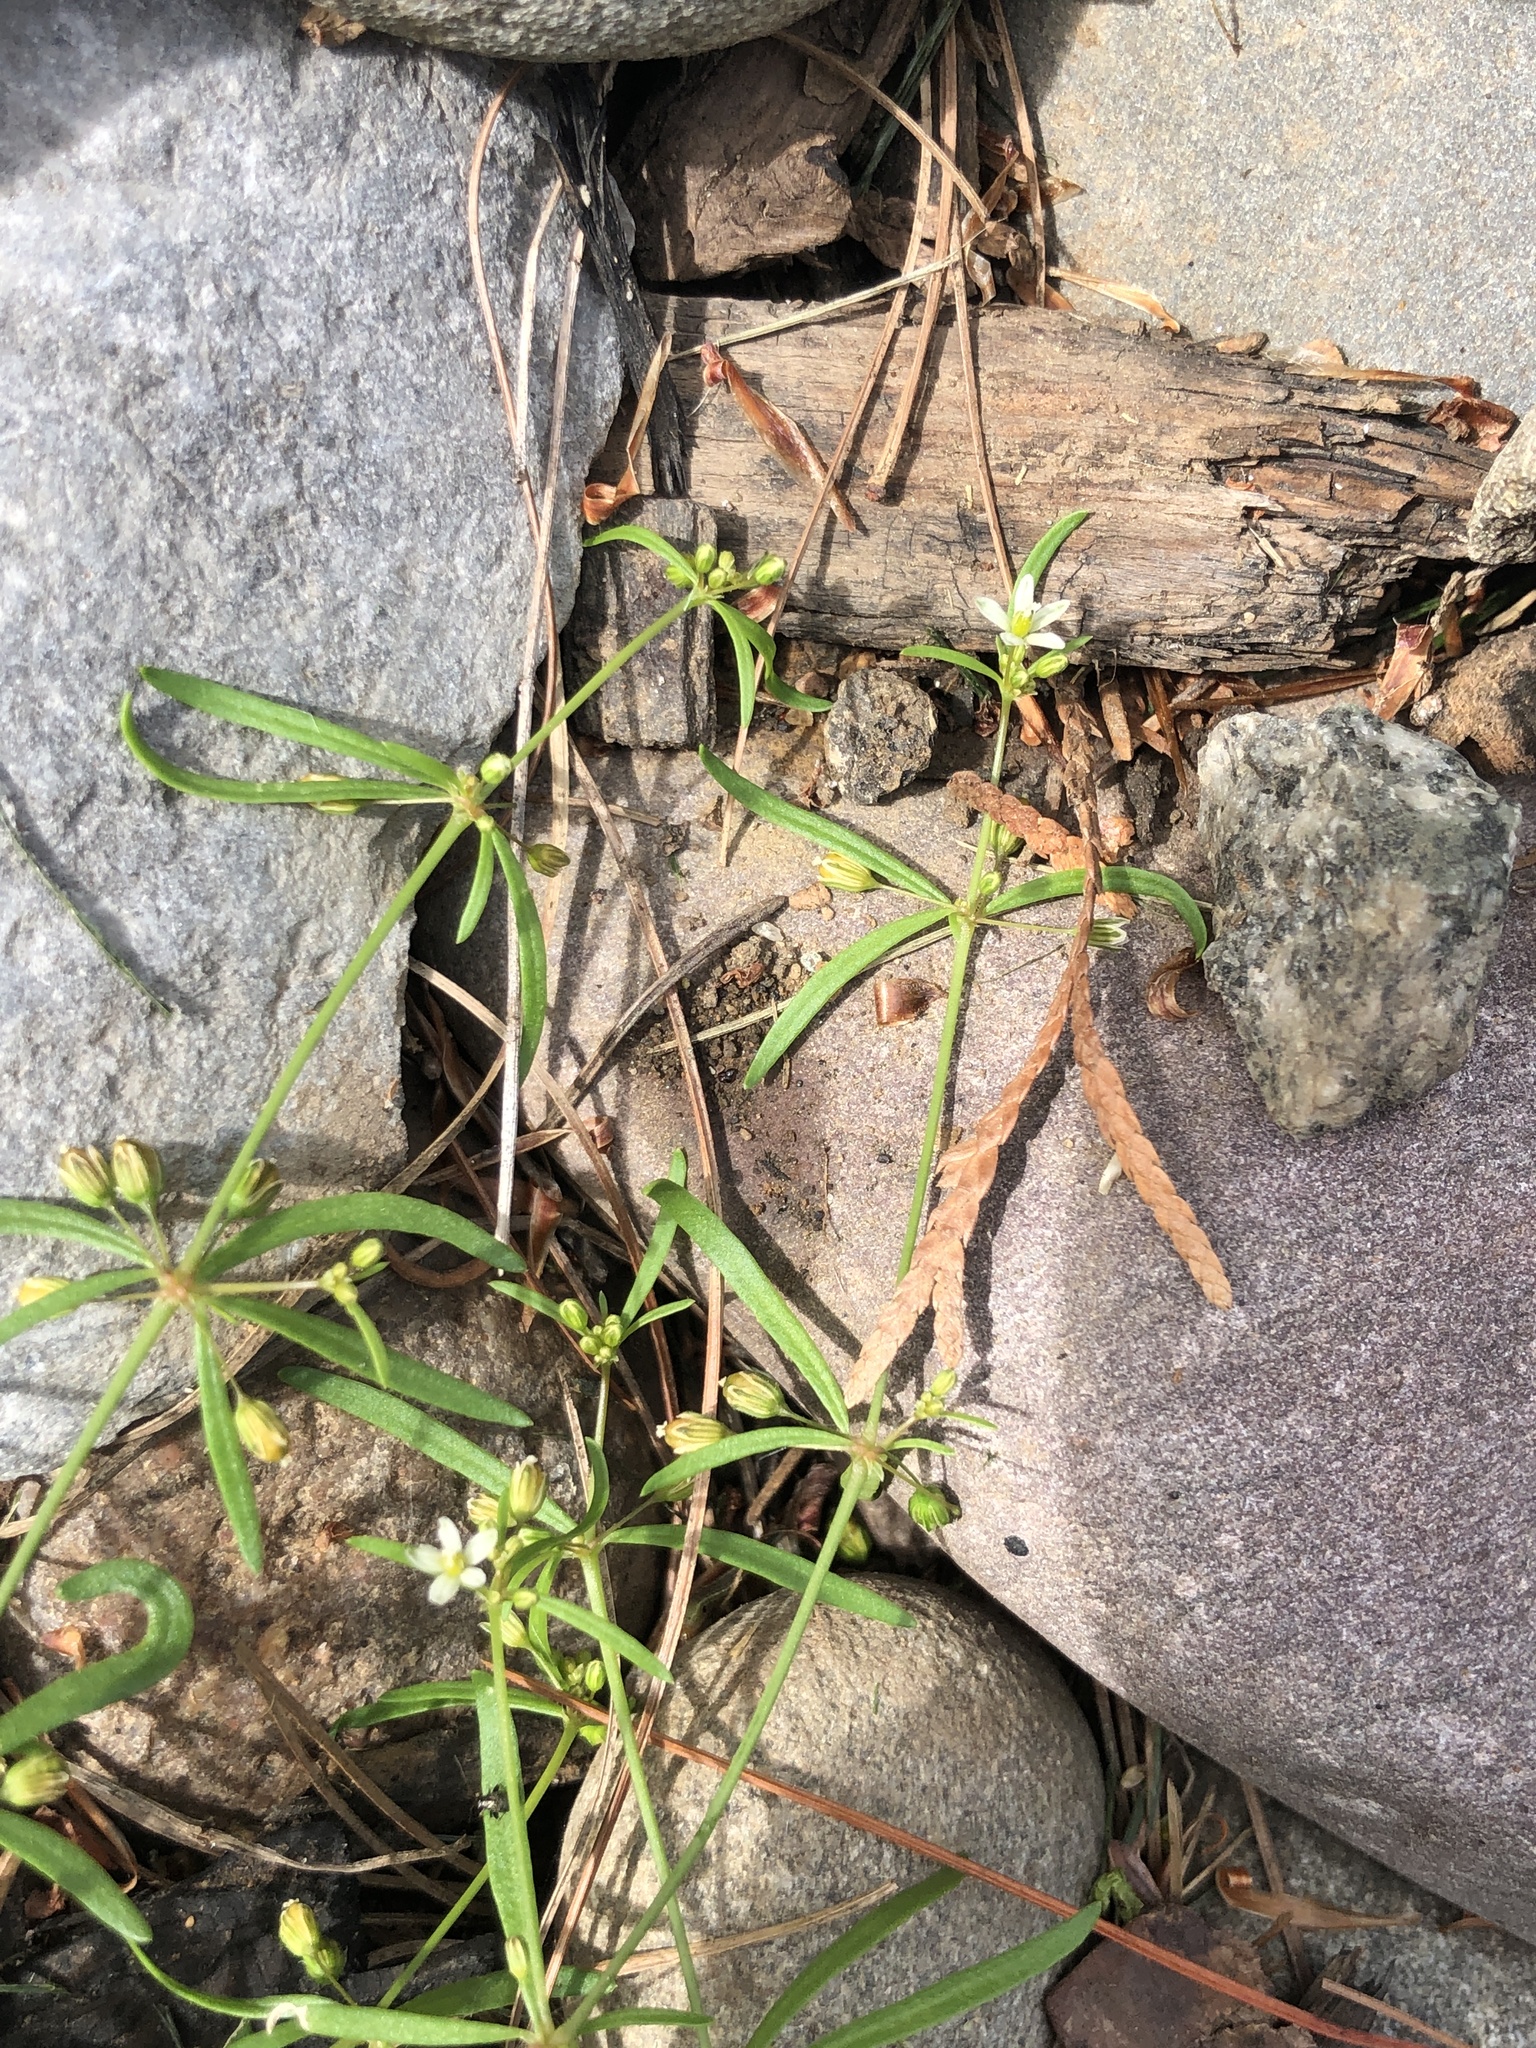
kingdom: Plantae
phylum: Tracheophyta
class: Magnoliopsida
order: Caryophyllales
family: Molluginaceae
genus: Mollugo
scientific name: Mollugo verticillata
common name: Green carpetweed
